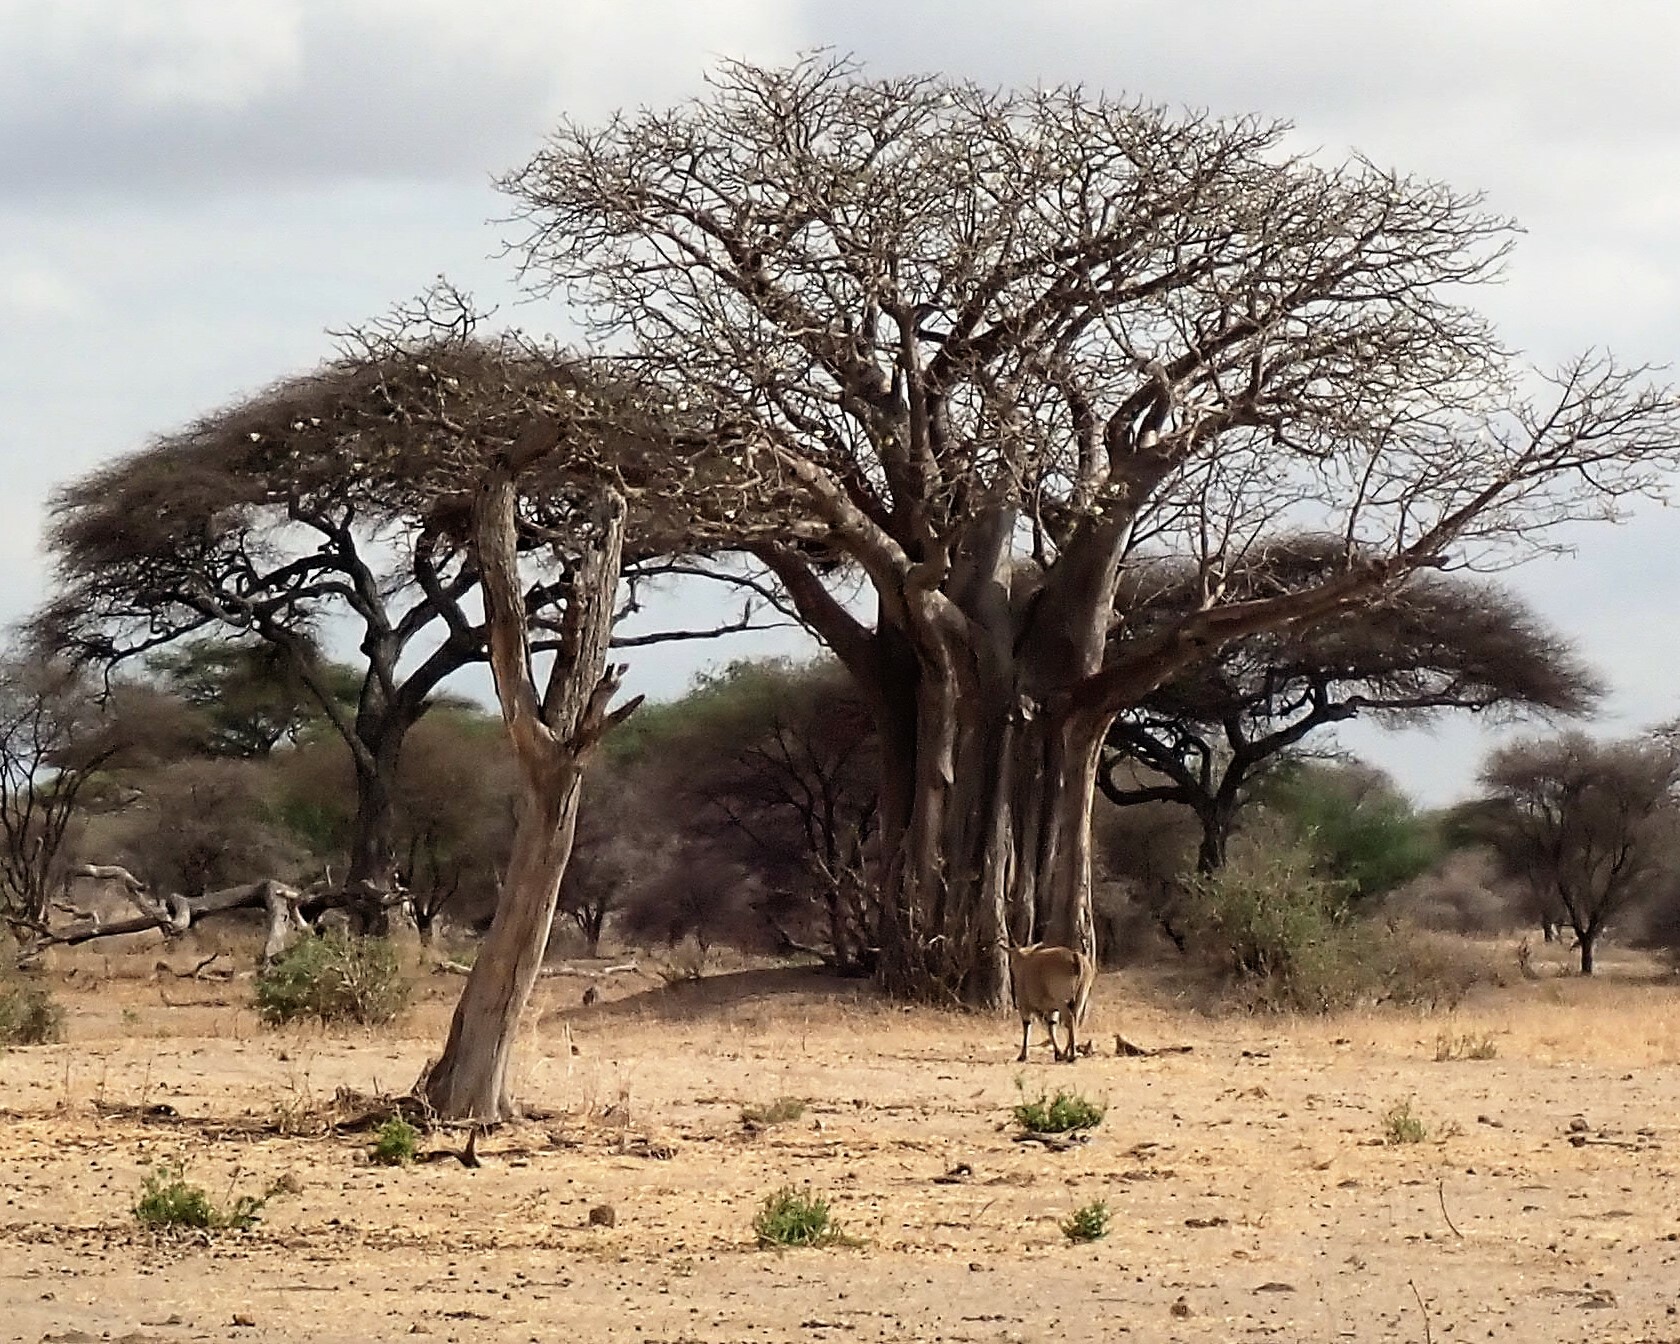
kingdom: Animalia
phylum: Chordata
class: Mammalia
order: Artiodactyla
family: Bovidae
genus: Taurotragus
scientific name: Taurotragus oryx
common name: Common eland
